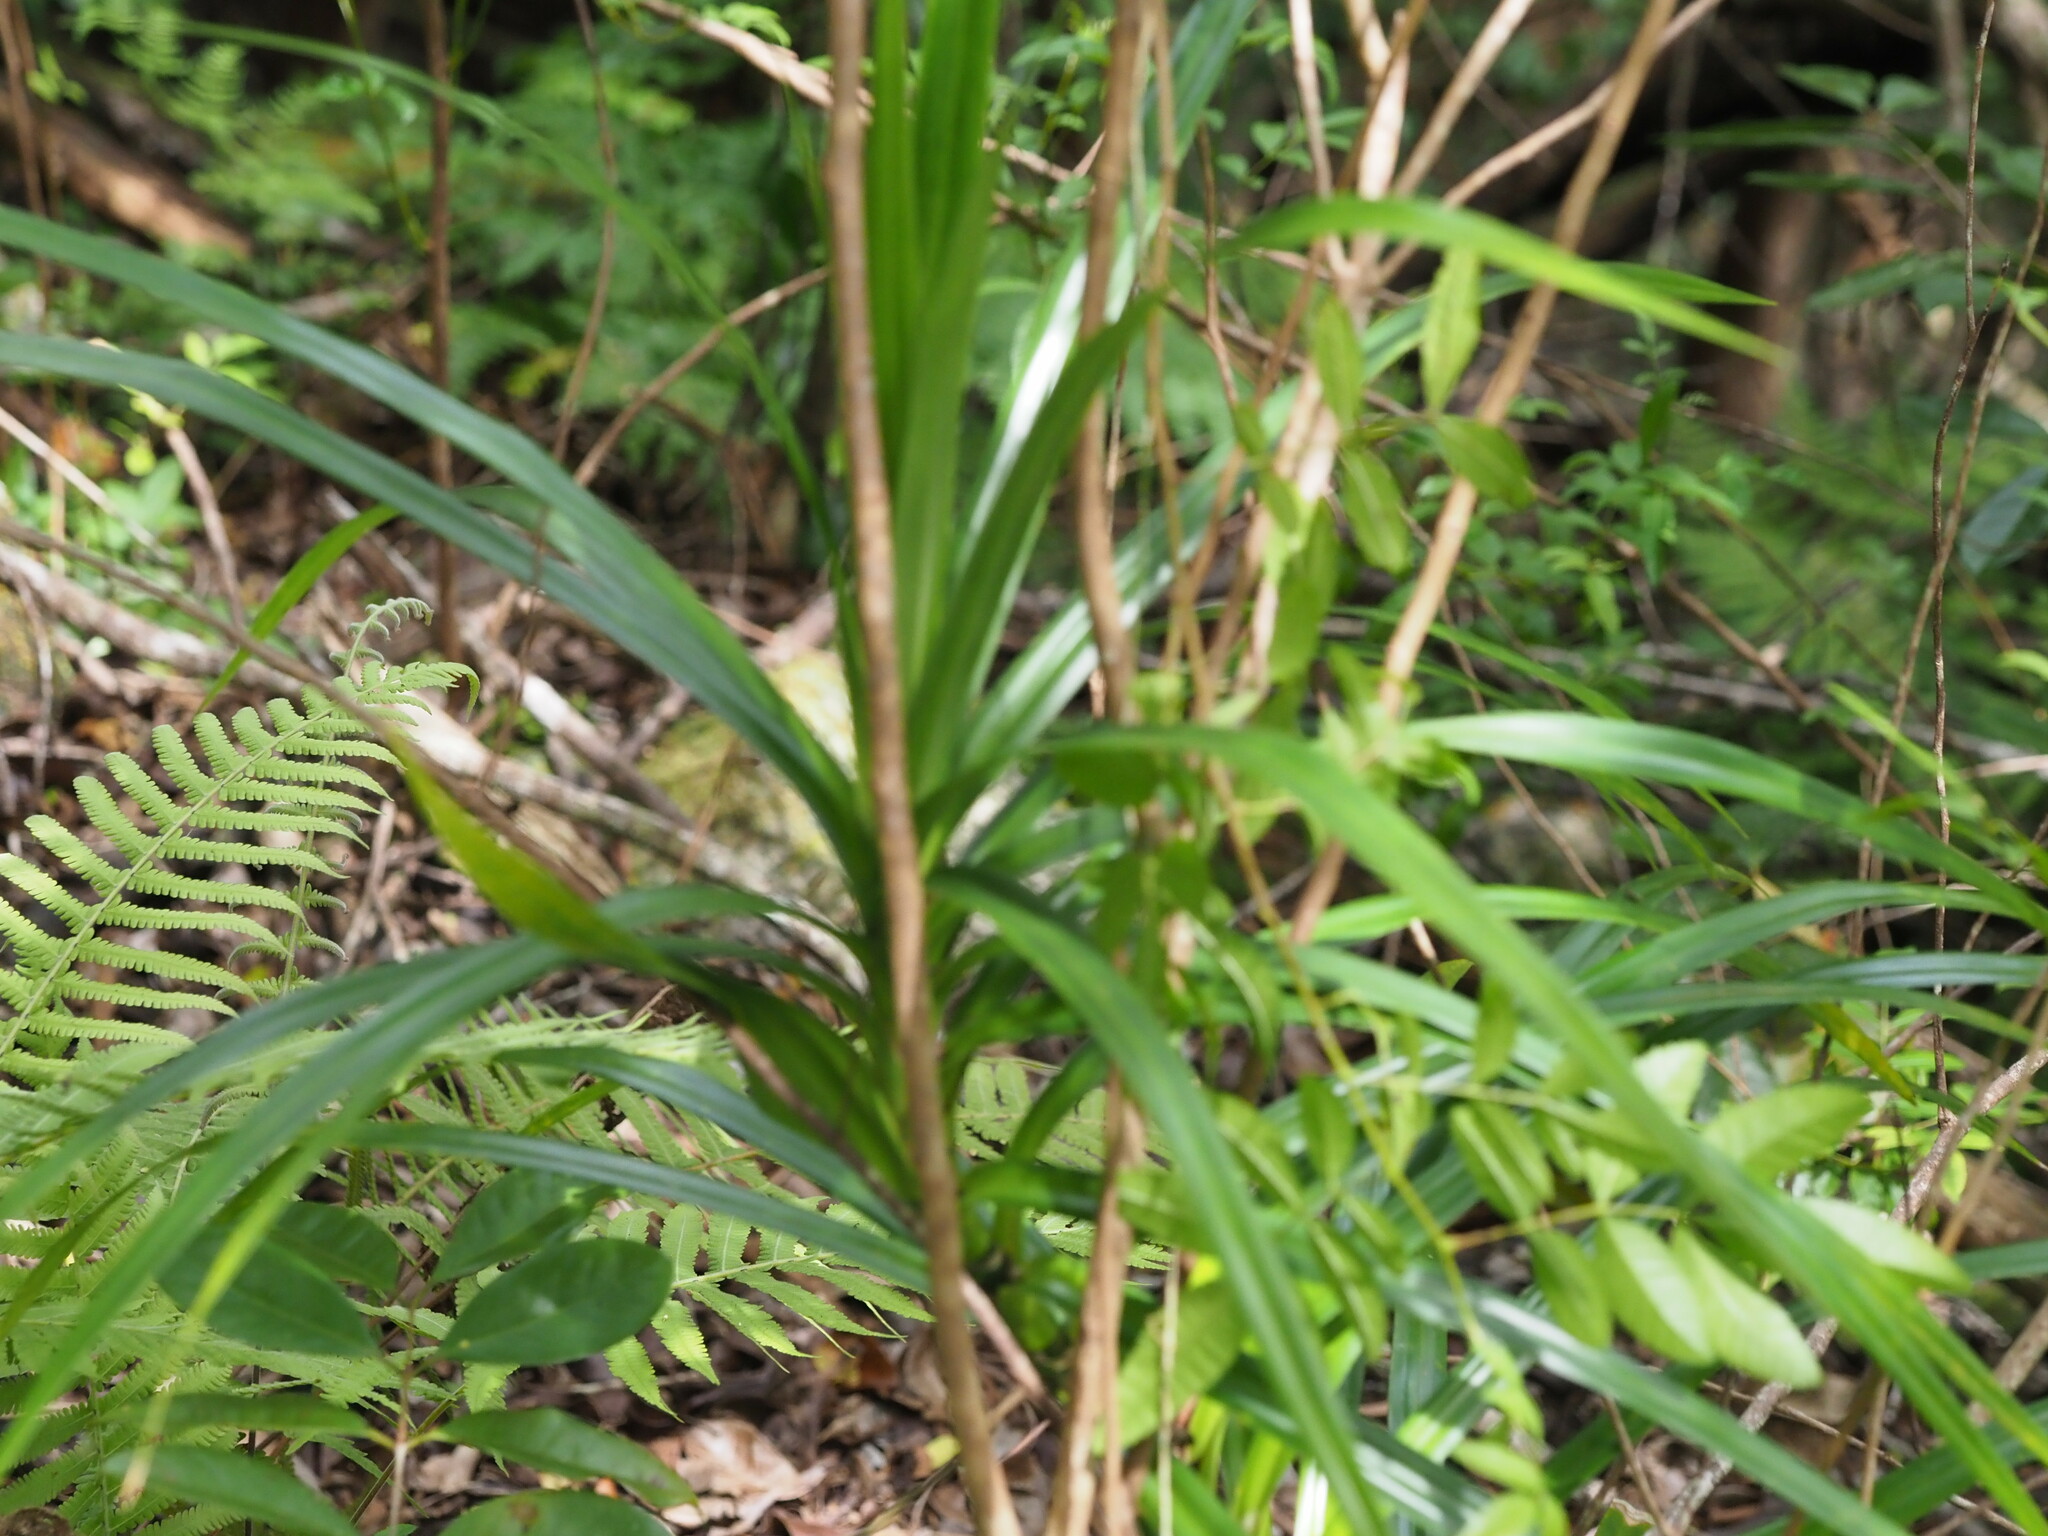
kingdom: Plantae
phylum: Tracheophyta
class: Liliopsida
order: Pandanales
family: Pandanaceae
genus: Freycinetia
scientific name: Freycinetia arborea
